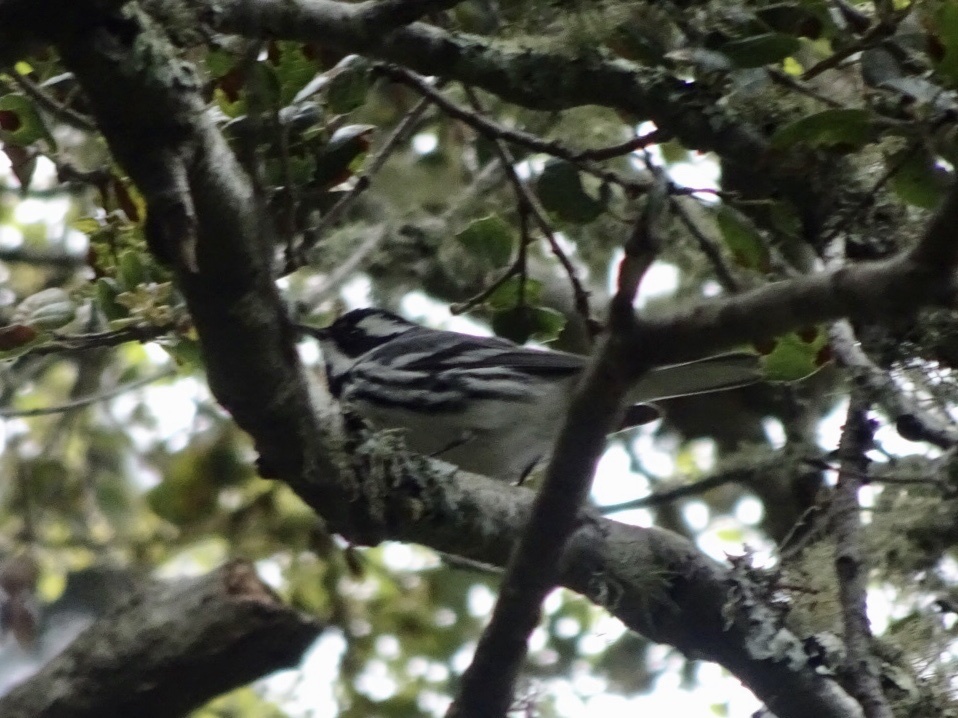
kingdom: Animalia
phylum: Chordata
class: Aves
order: Passeriformes
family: Parulidae
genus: Setophaga
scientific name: Setophaga nigrescens
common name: Black-throated gray warbler
